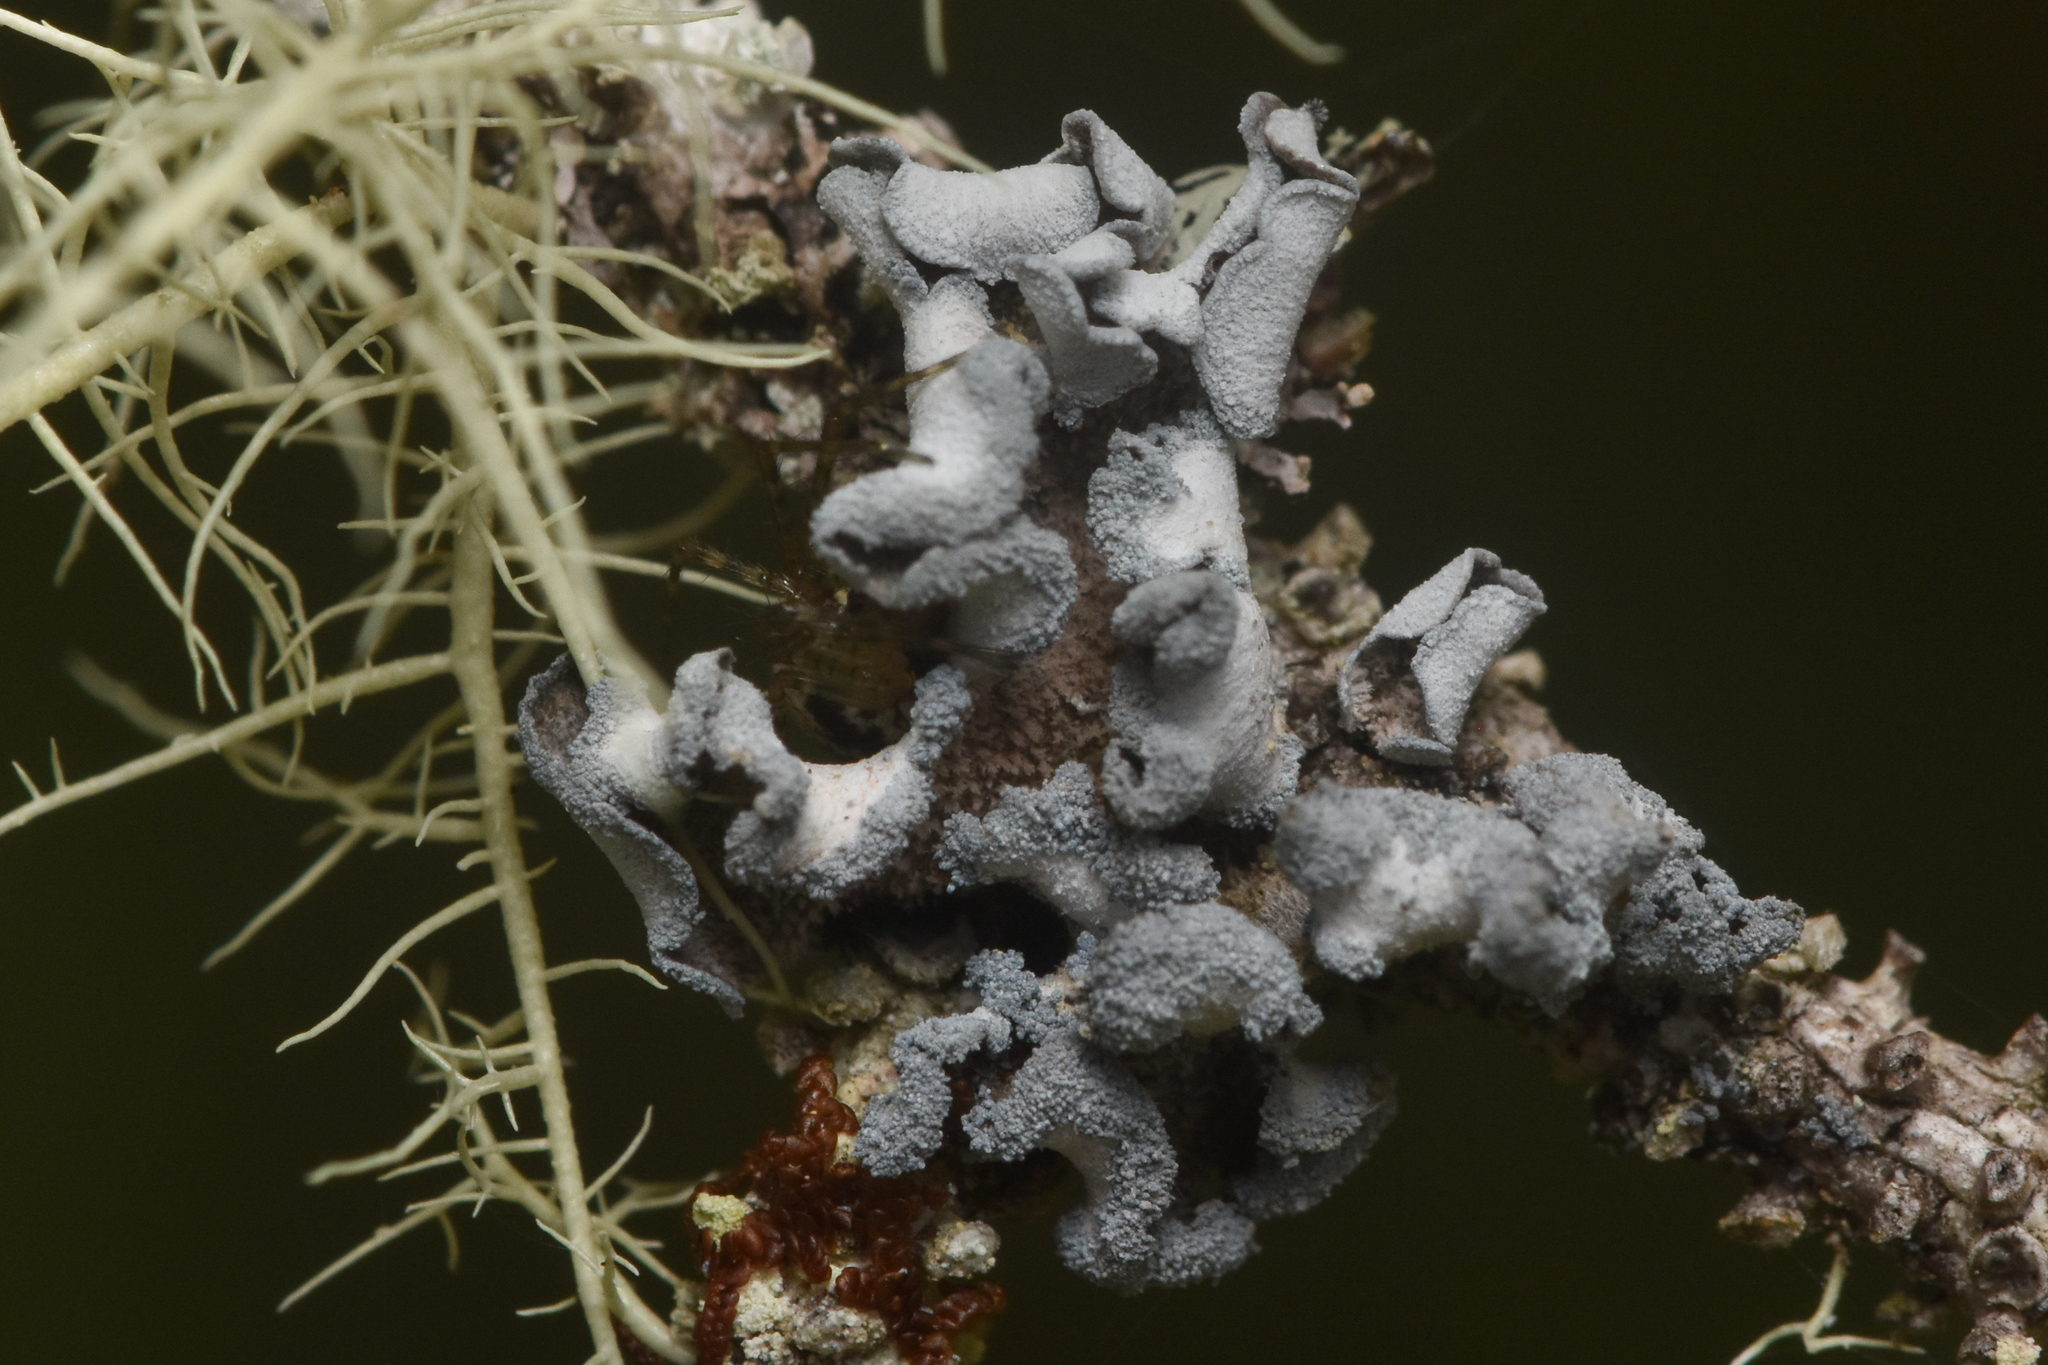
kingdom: Fungi
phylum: Ascomycota
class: Lecanoromycetes
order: Peltigerales
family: Pannariaceae
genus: Erioderma
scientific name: Erioderma sorediatum
